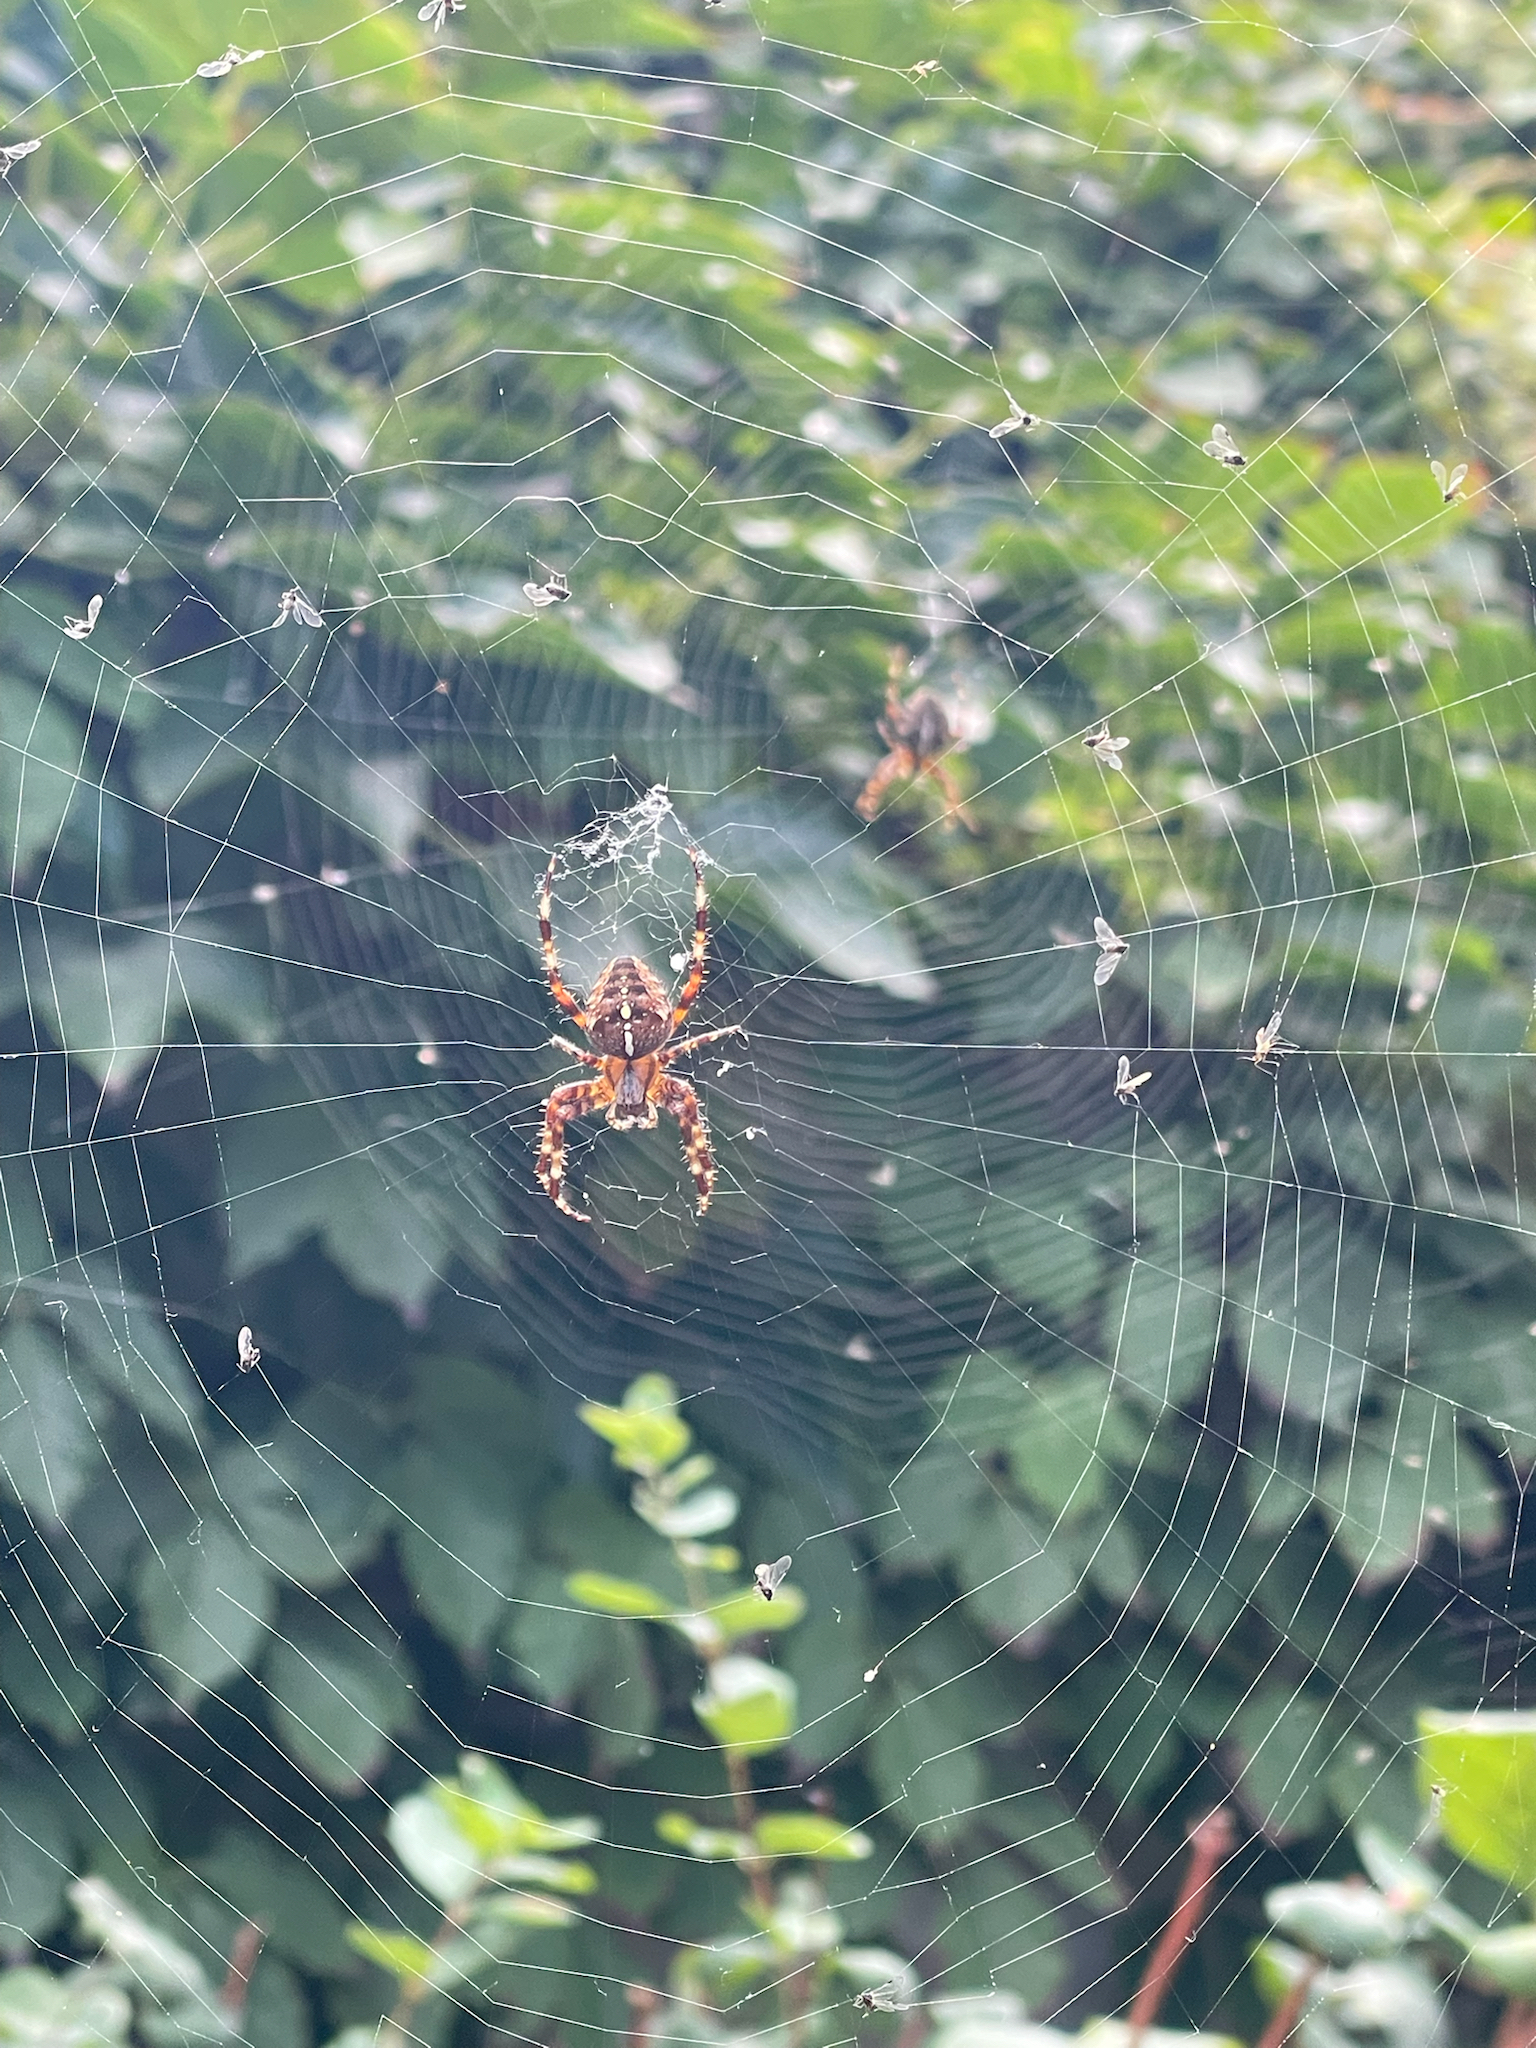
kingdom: Animalia
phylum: Arthropoda
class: Arachnida
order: Araneae
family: Araneidae
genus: Araneus
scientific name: Araneus diadematus
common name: Cross orbweaver
